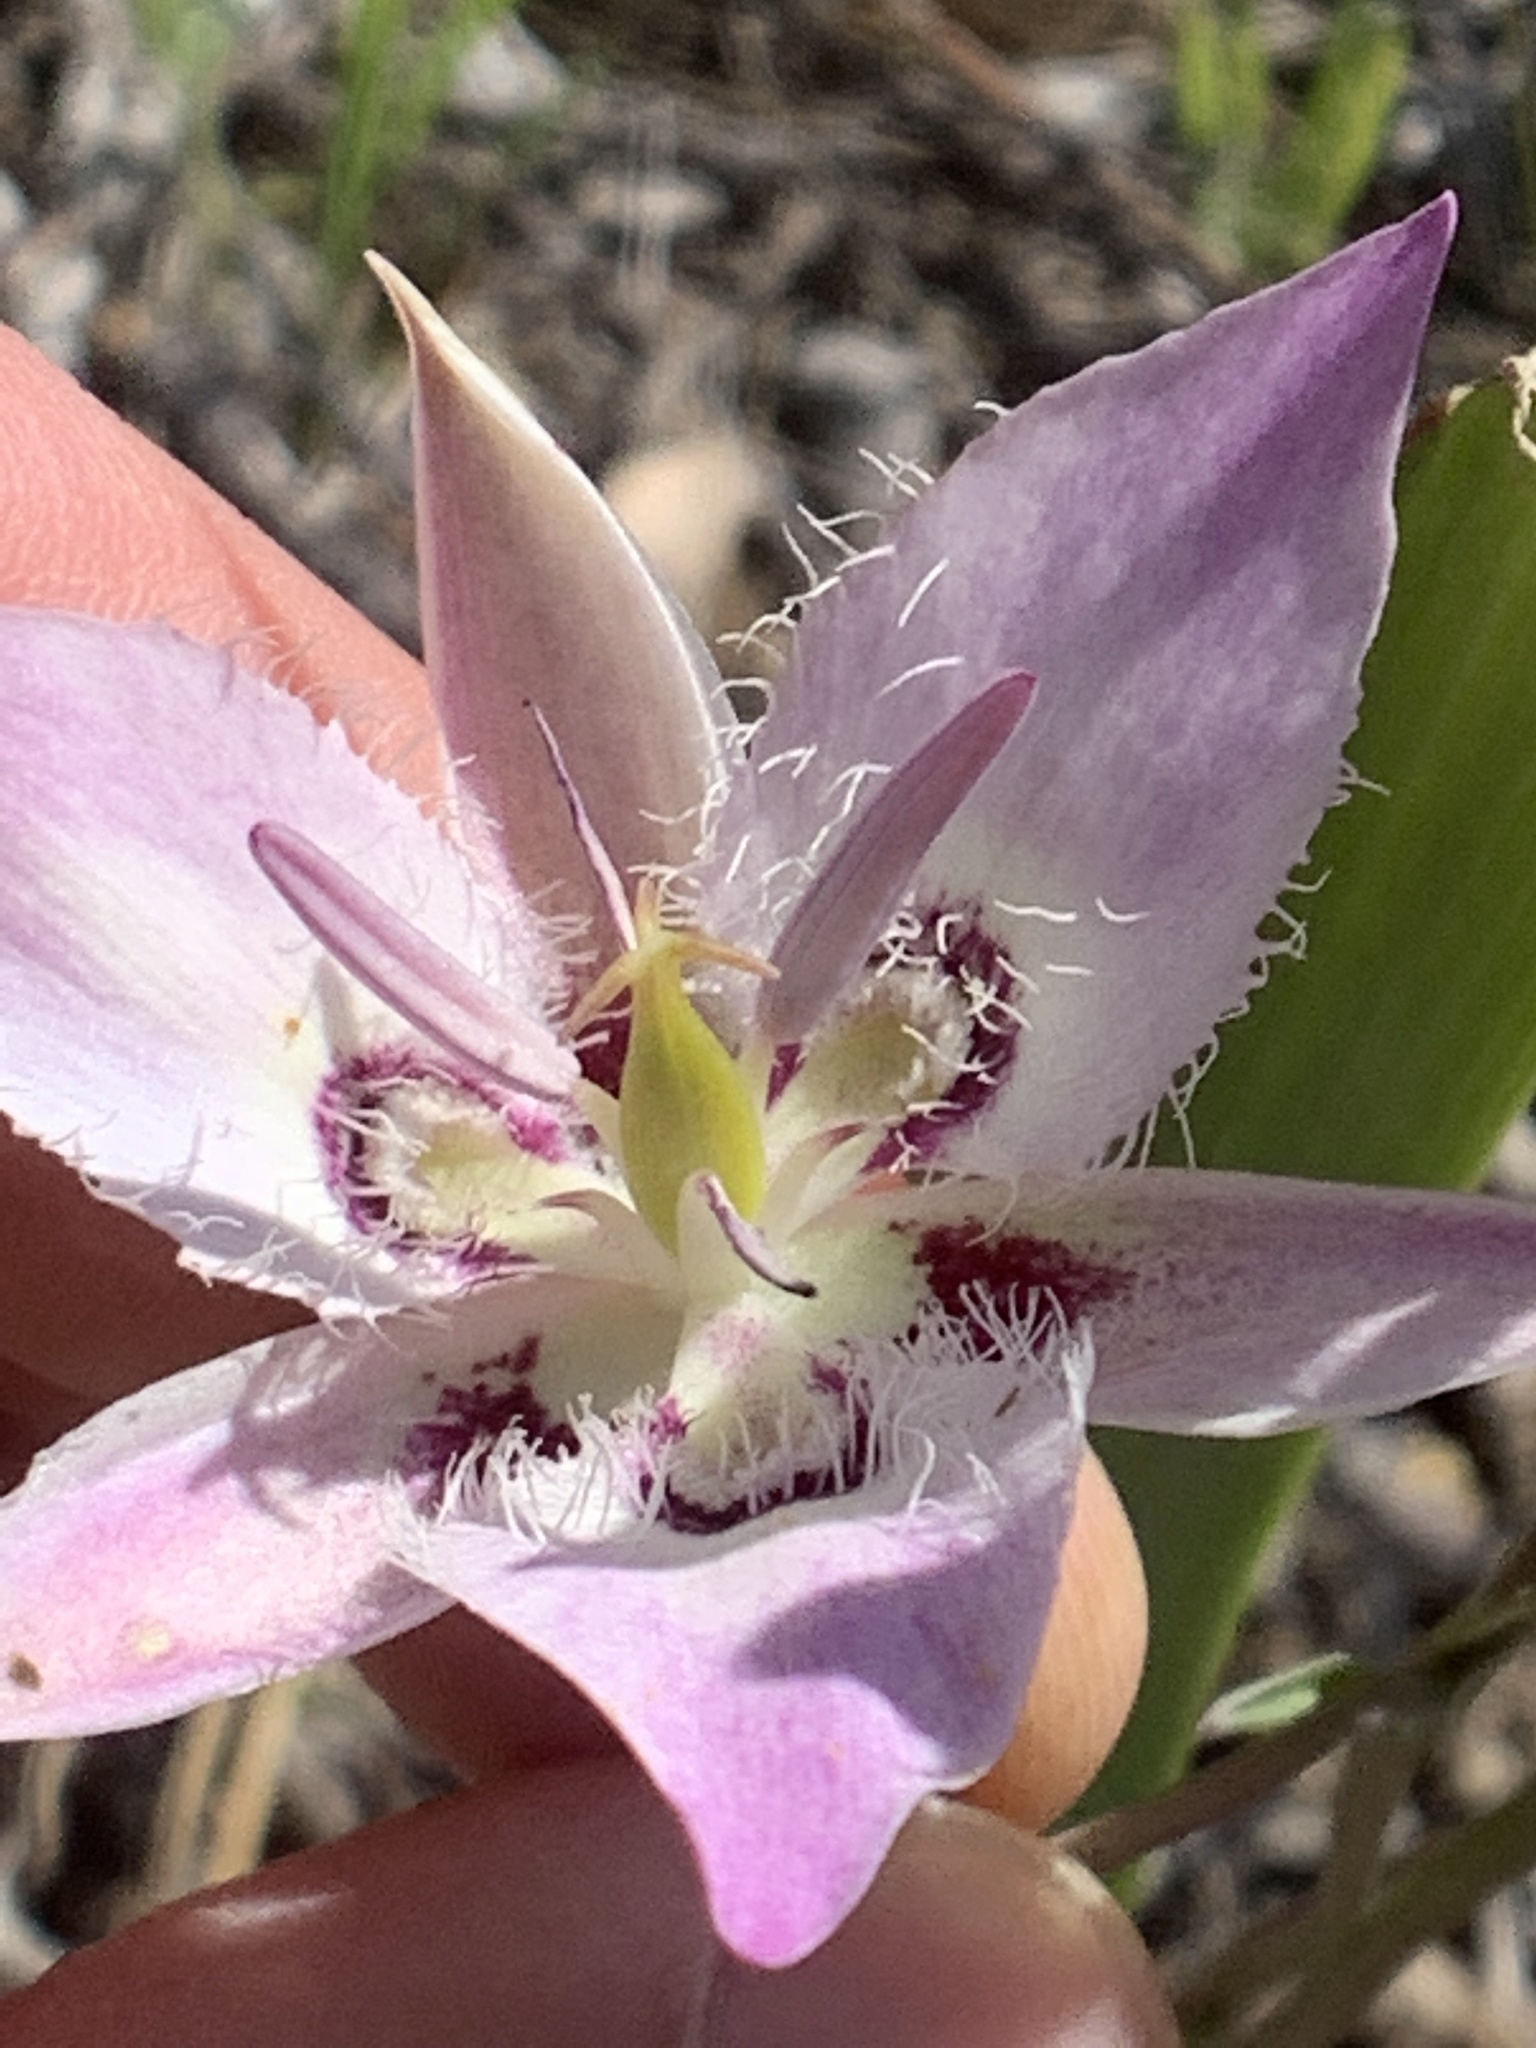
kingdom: Plantae
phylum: Tracheophyta
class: Liliopsida
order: Liliales
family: Liliaceae
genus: Calochortus
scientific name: Calochortus lyallii
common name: Lyall's mariposa lily
